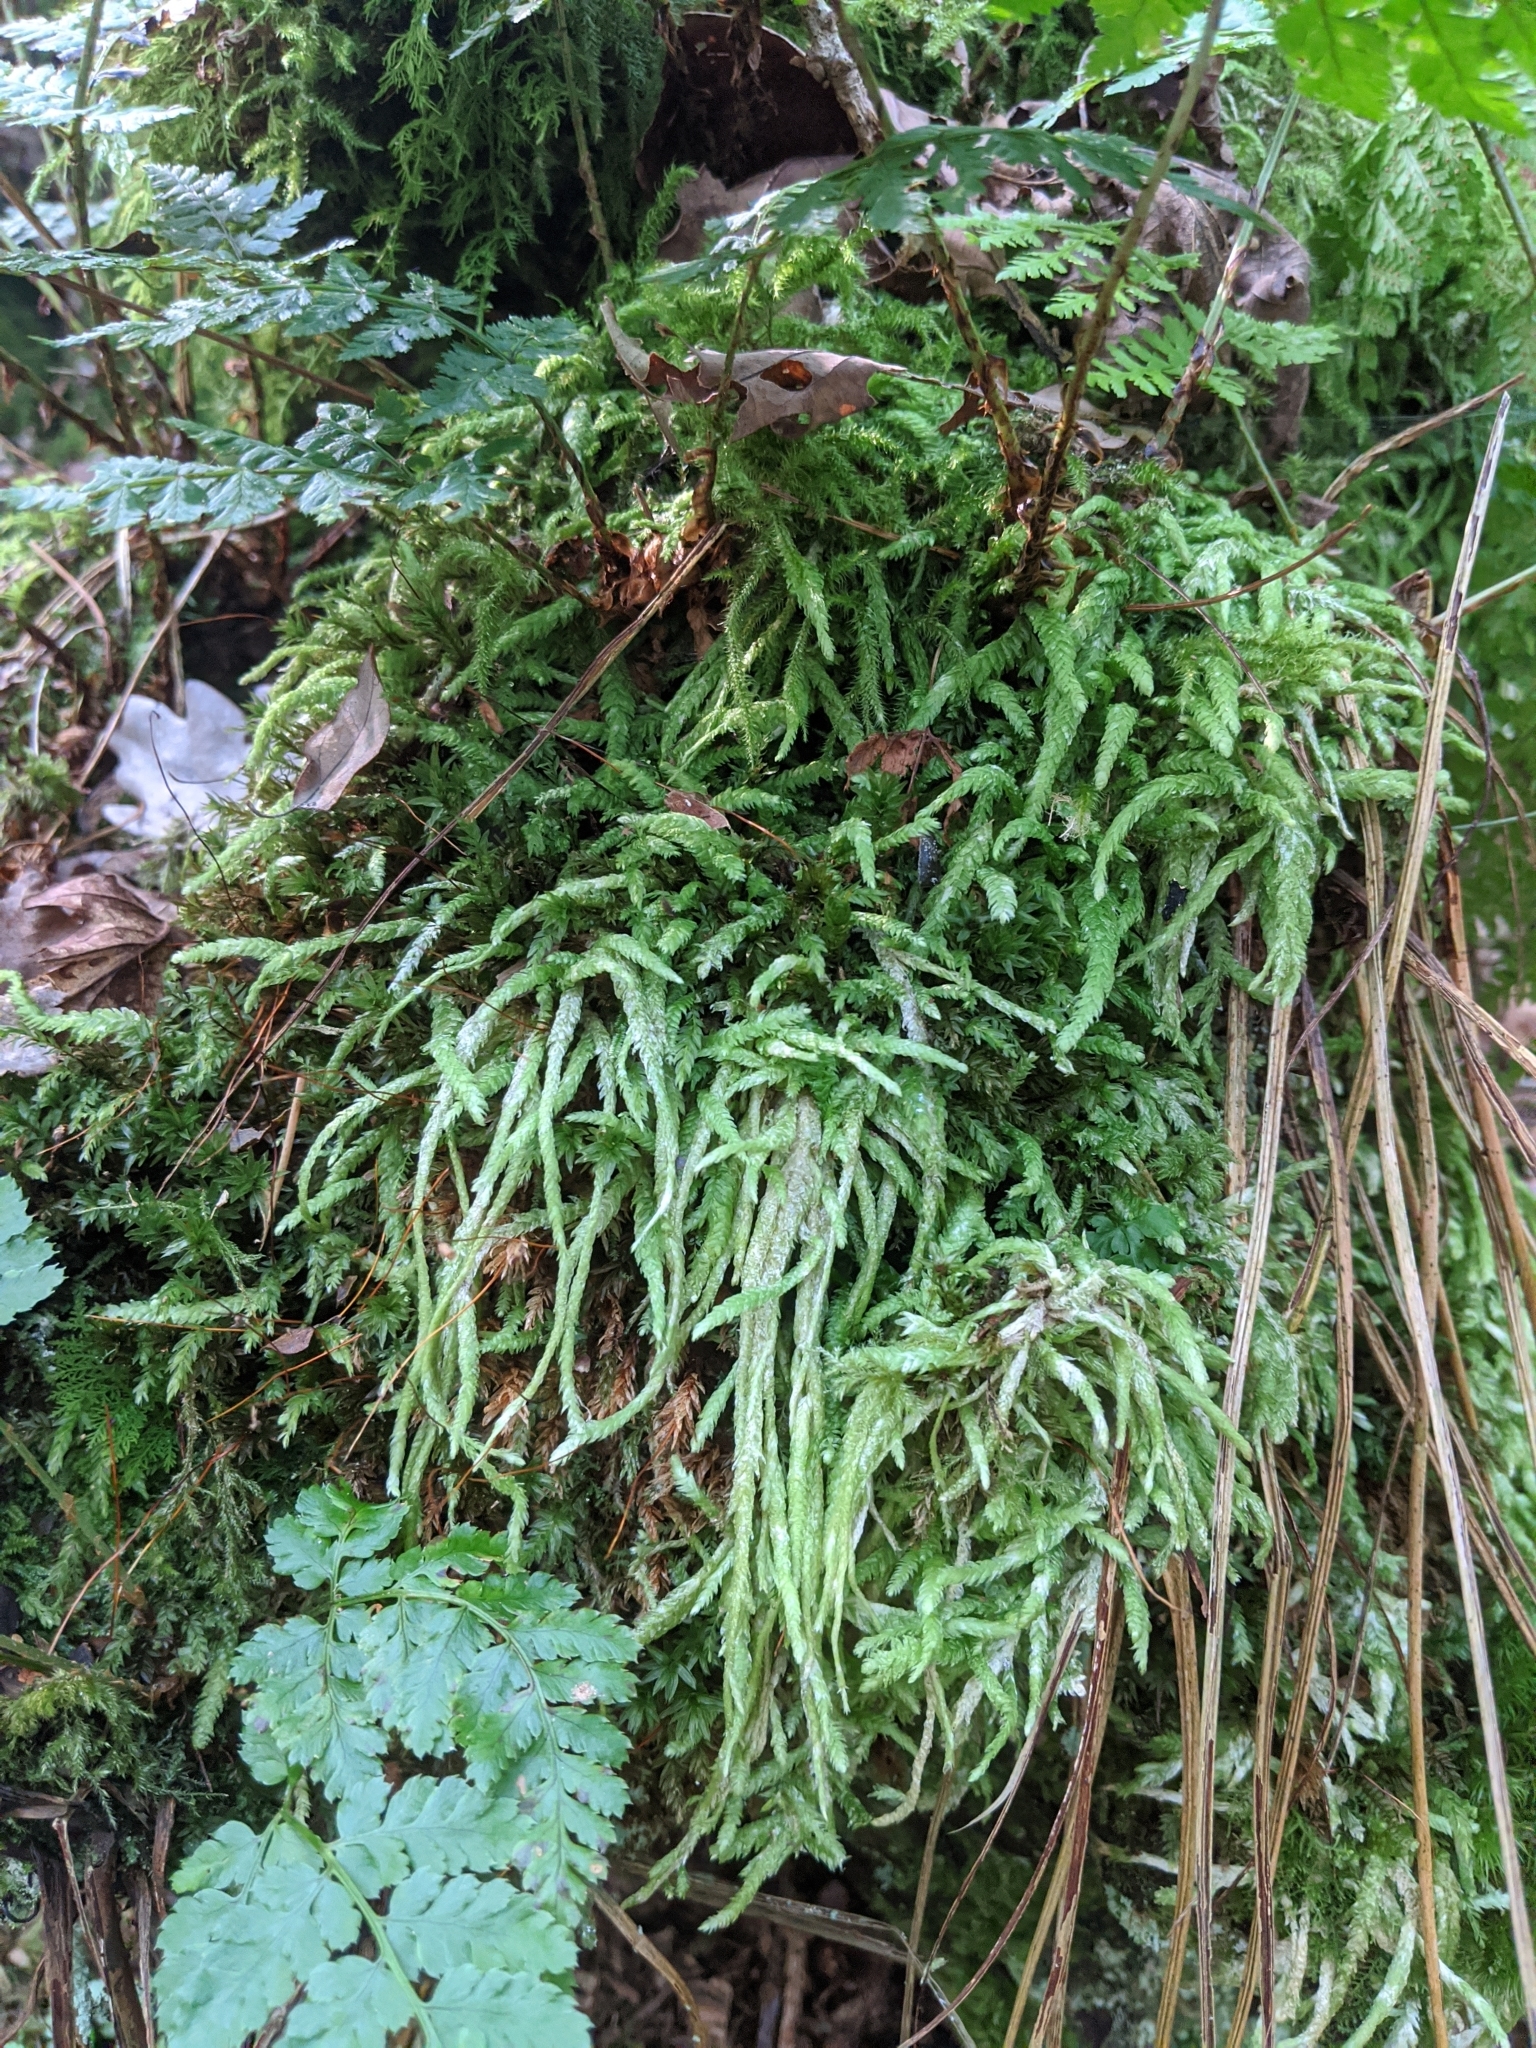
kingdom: Plantae
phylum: Bryophyta
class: Bryopsida
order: Hypnales
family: Plagiotheciaceae
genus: Plagiothecium
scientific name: Plagiothecium undulatum
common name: Waved silk-moss
